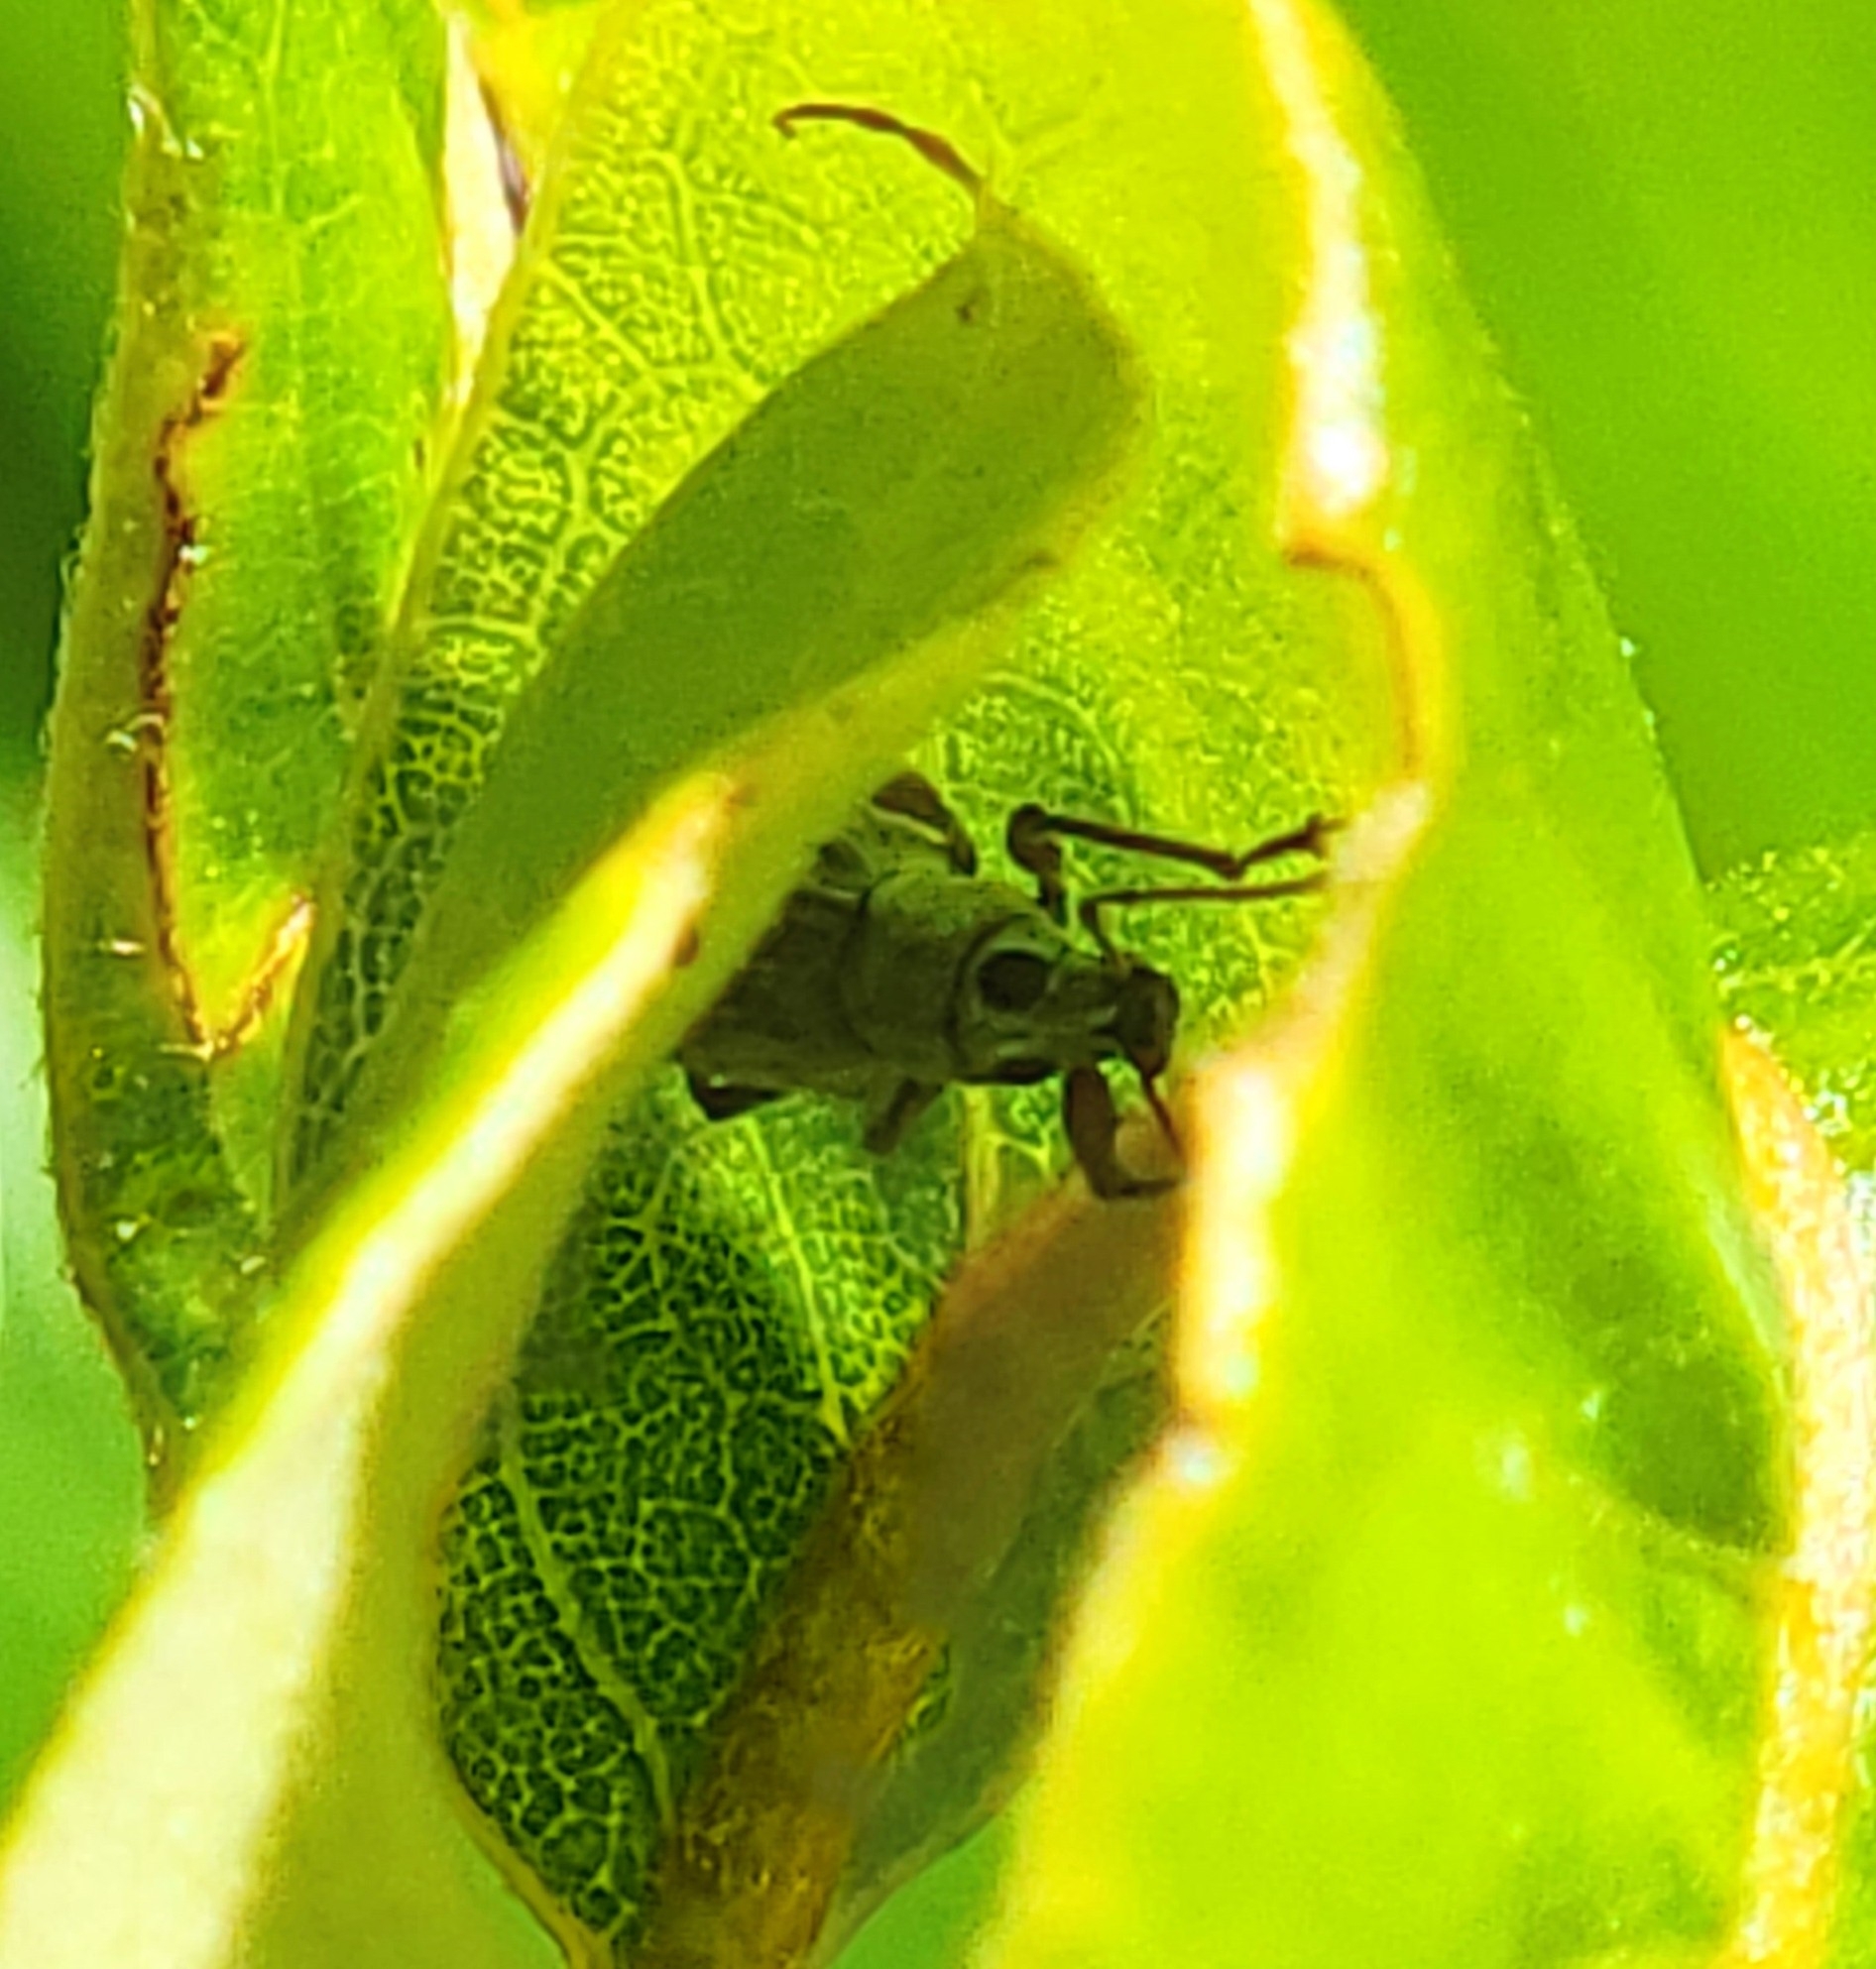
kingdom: Animalia
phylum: Arthropoda
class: Insecta
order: Coleoptera
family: Curculionidae
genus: Cyrtepistomus
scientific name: Cyrtepistomus castaneus
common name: Weevil
